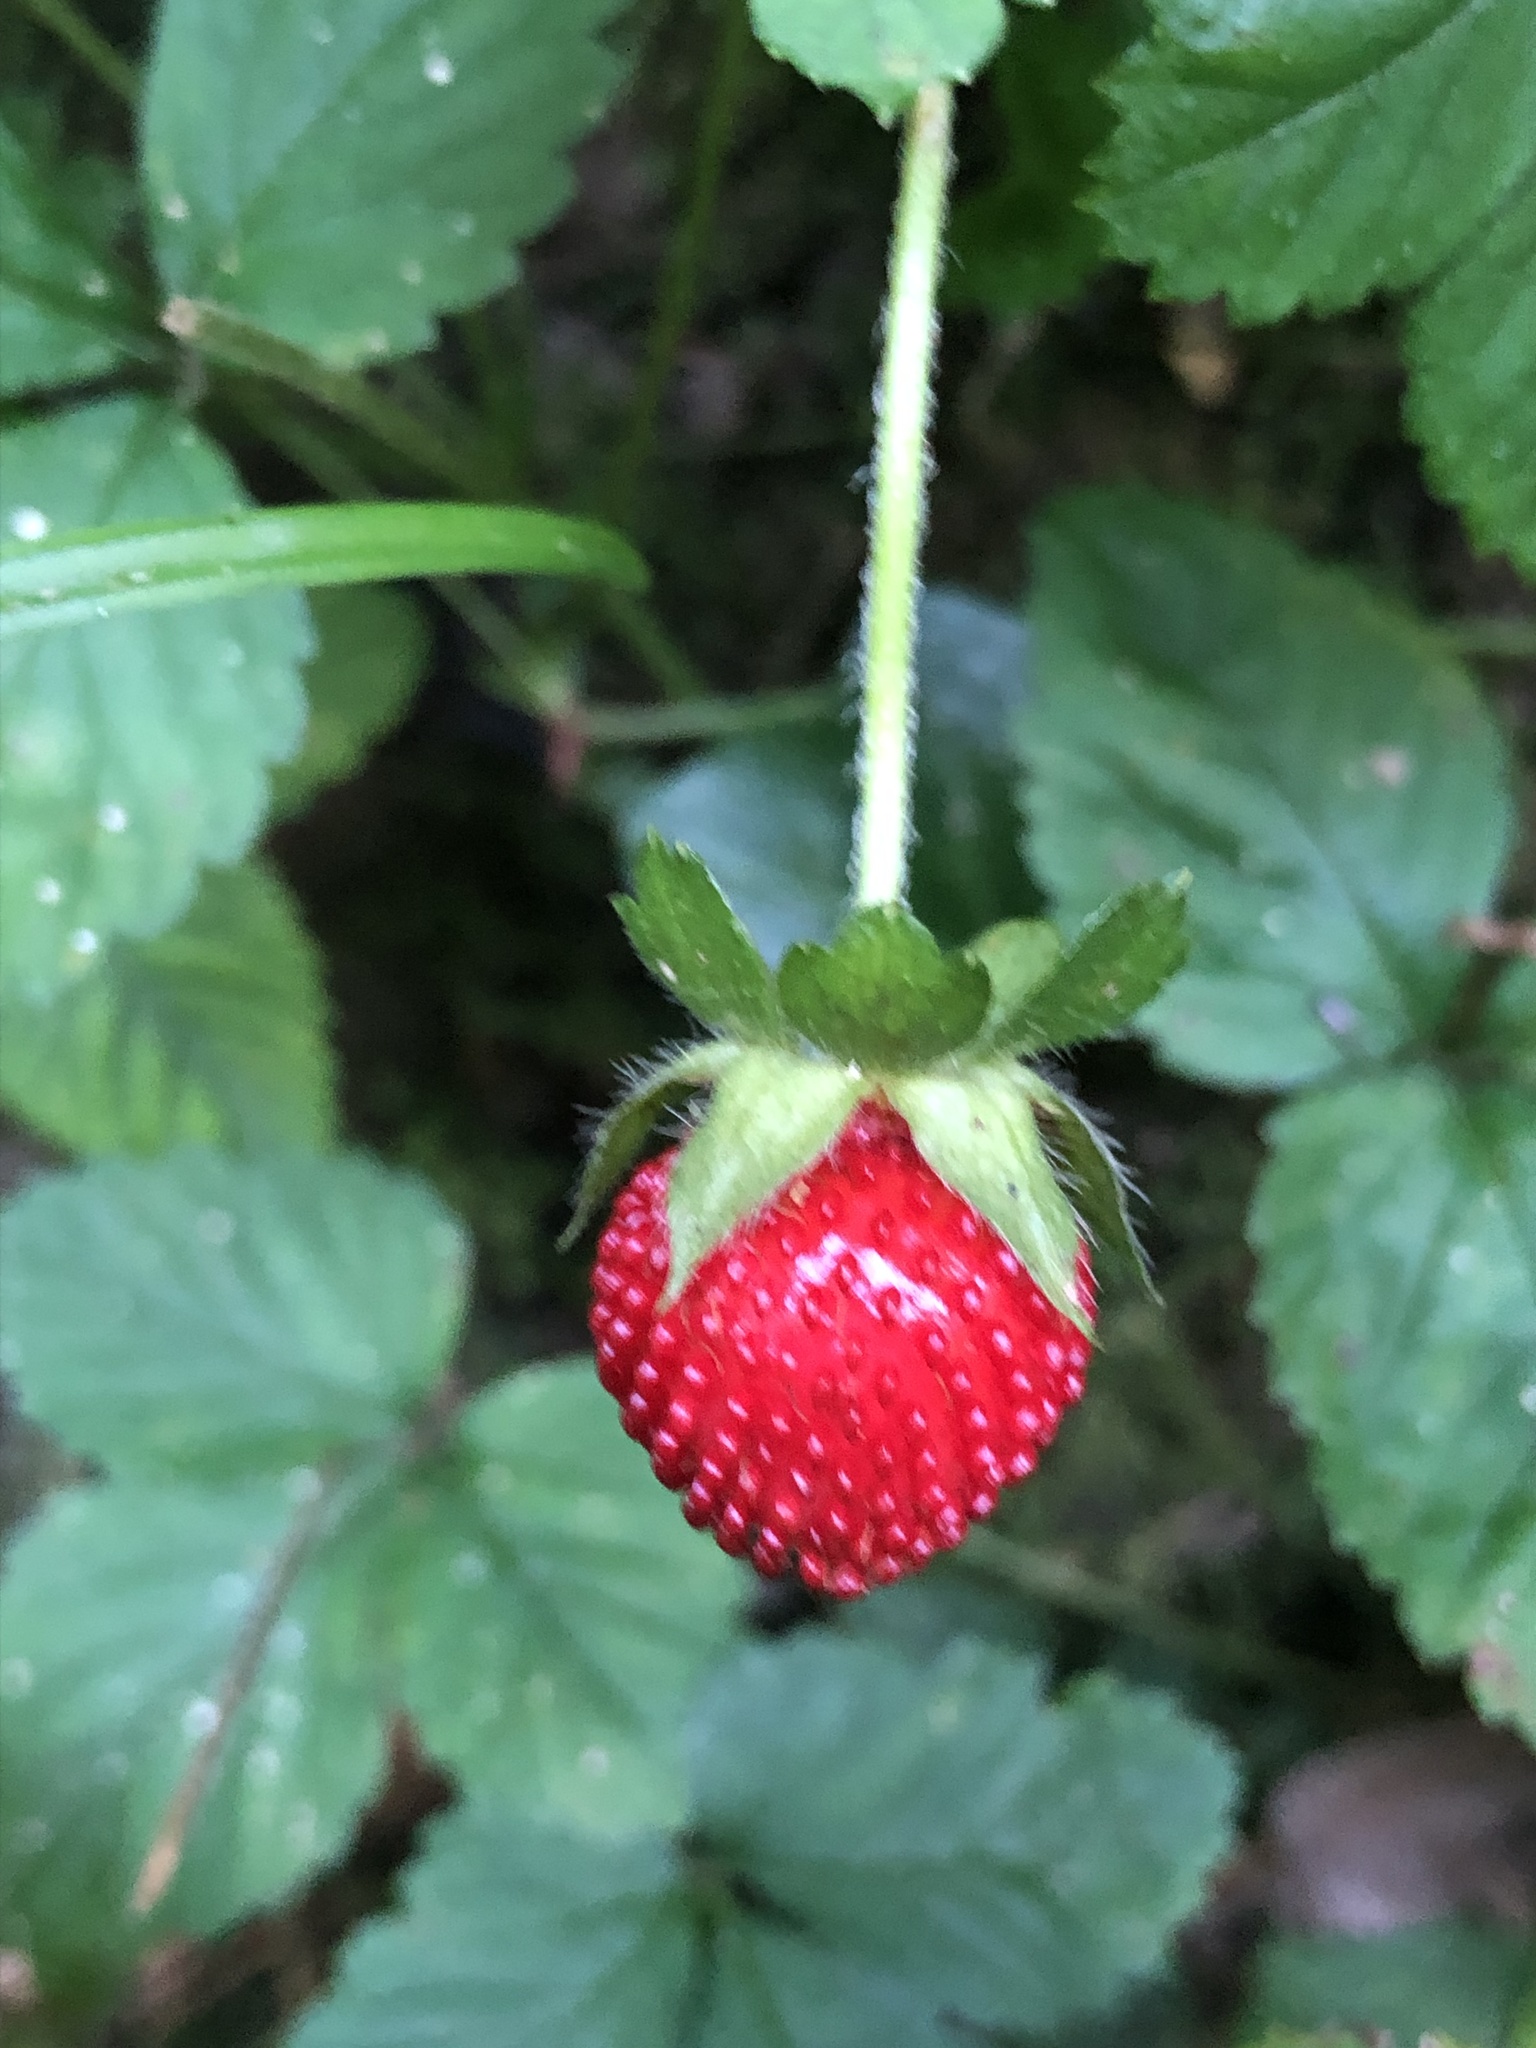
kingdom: Plantae
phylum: Tracheophyta
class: Magnoliopsida
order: Rosales
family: Rosaceae
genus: Potentilla
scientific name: Potentilla indica
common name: Yellow-flowered strawberry
